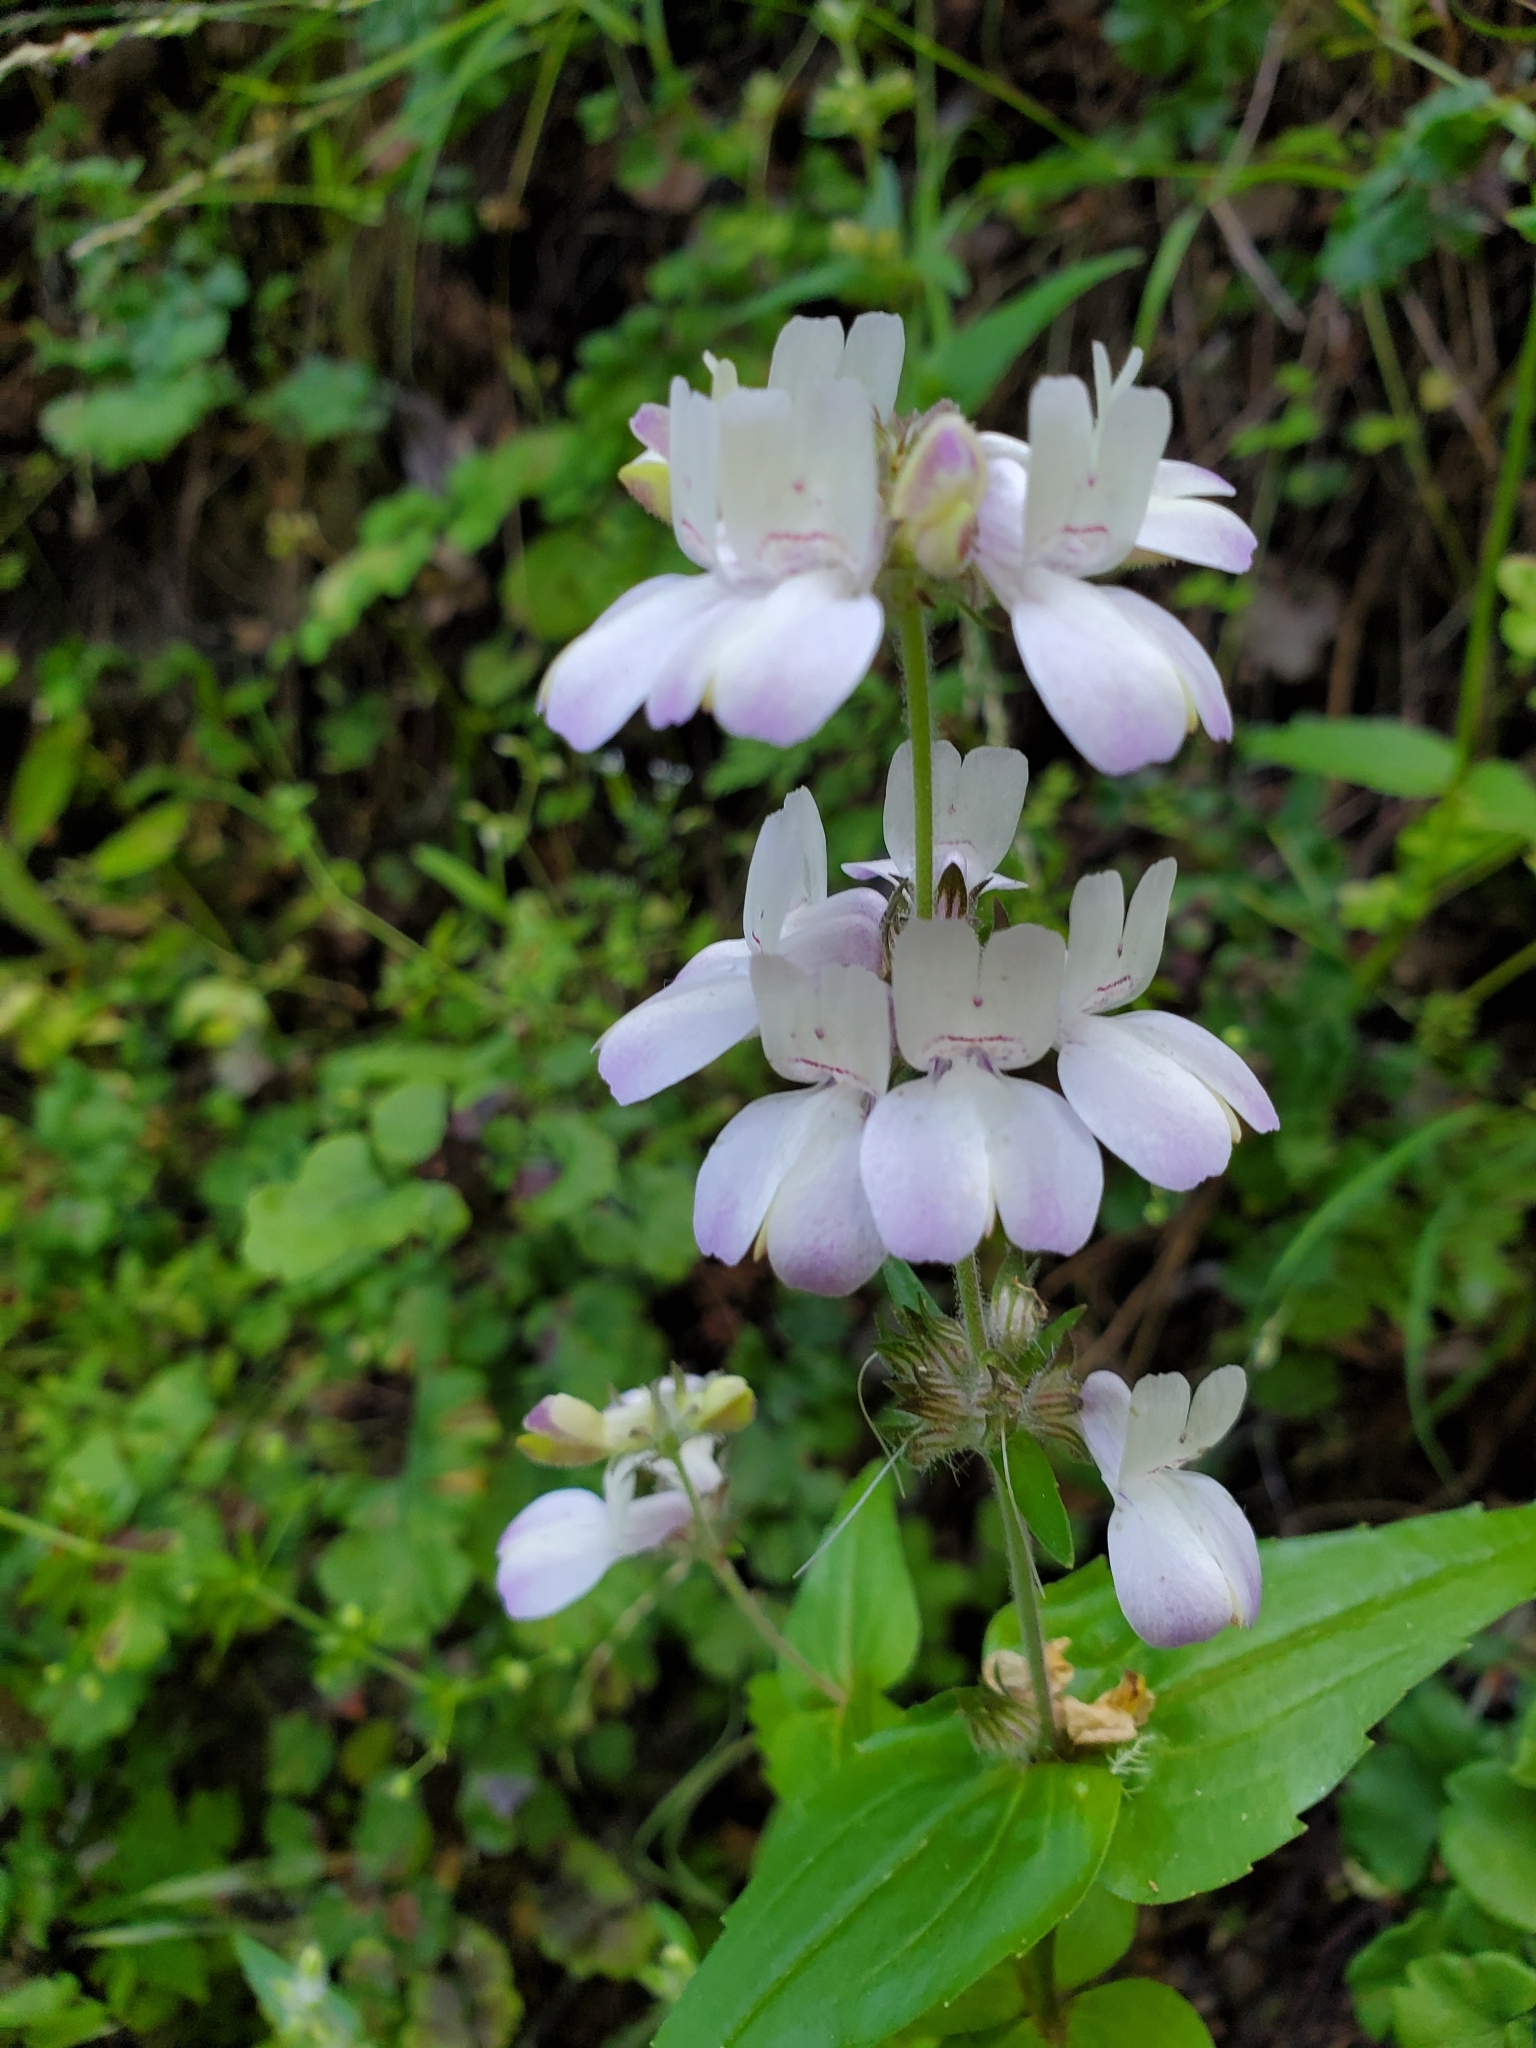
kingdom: Plantae
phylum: Tracheophyta
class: Magnoliopsida
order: Lamiales
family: Plantaginaceae
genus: Collinsia
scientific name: Collinsia heterophylla
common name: Chinese-houses
